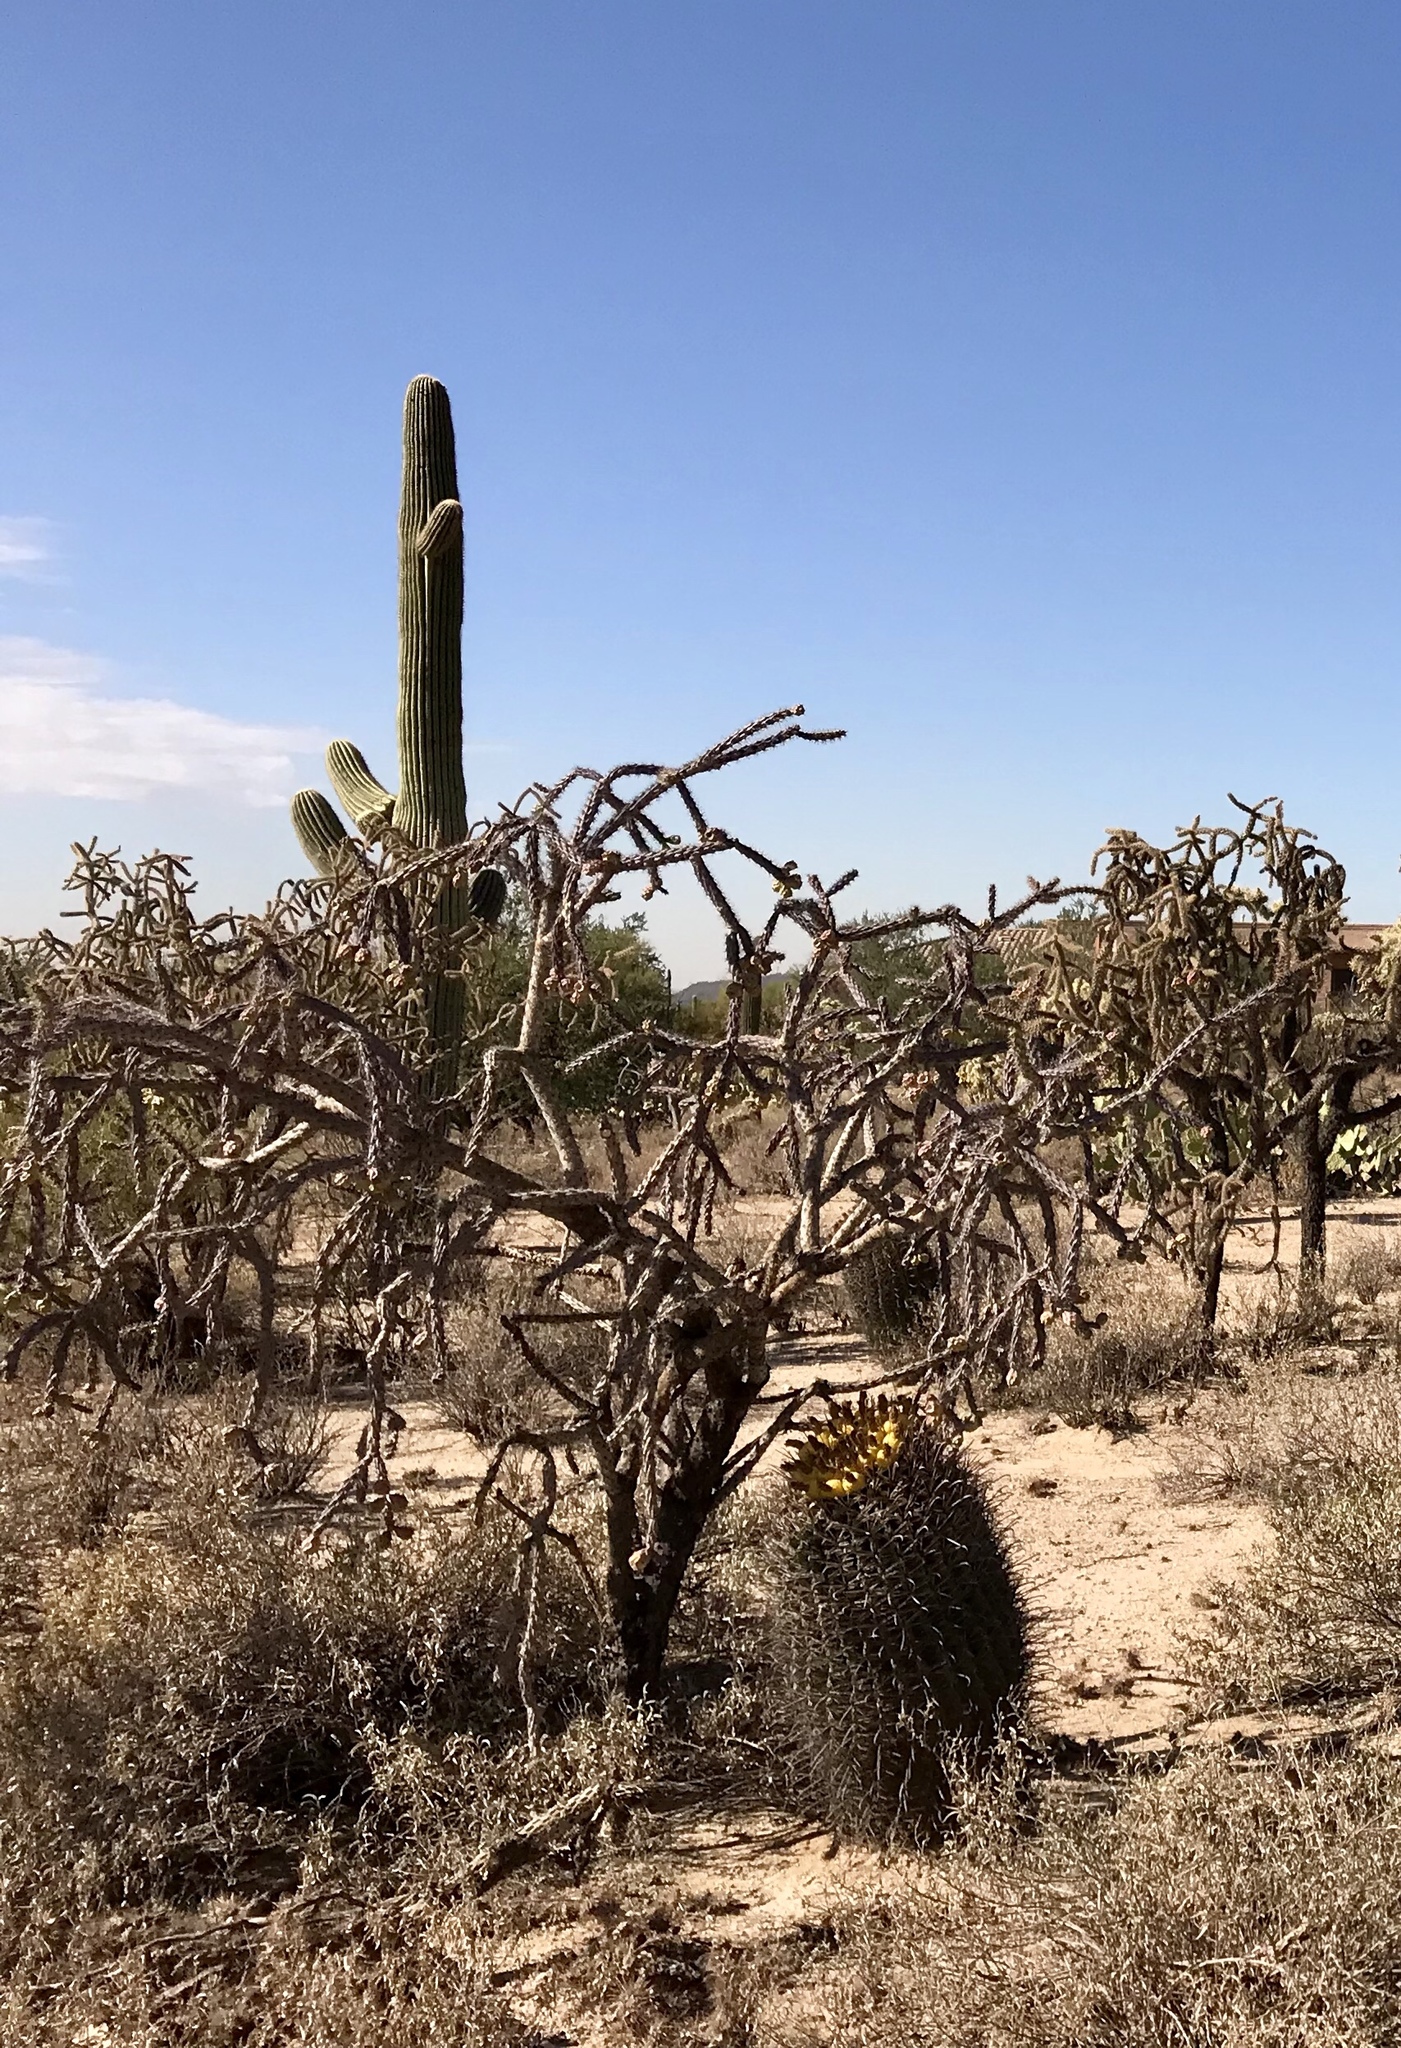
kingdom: Plantae
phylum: Tracheophyta
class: Magnoliopsida
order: Caryophyllales
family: Cactaceae
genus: Ferocactus
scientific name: Ferocactus wislizeni
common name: Candy barrel cactus
